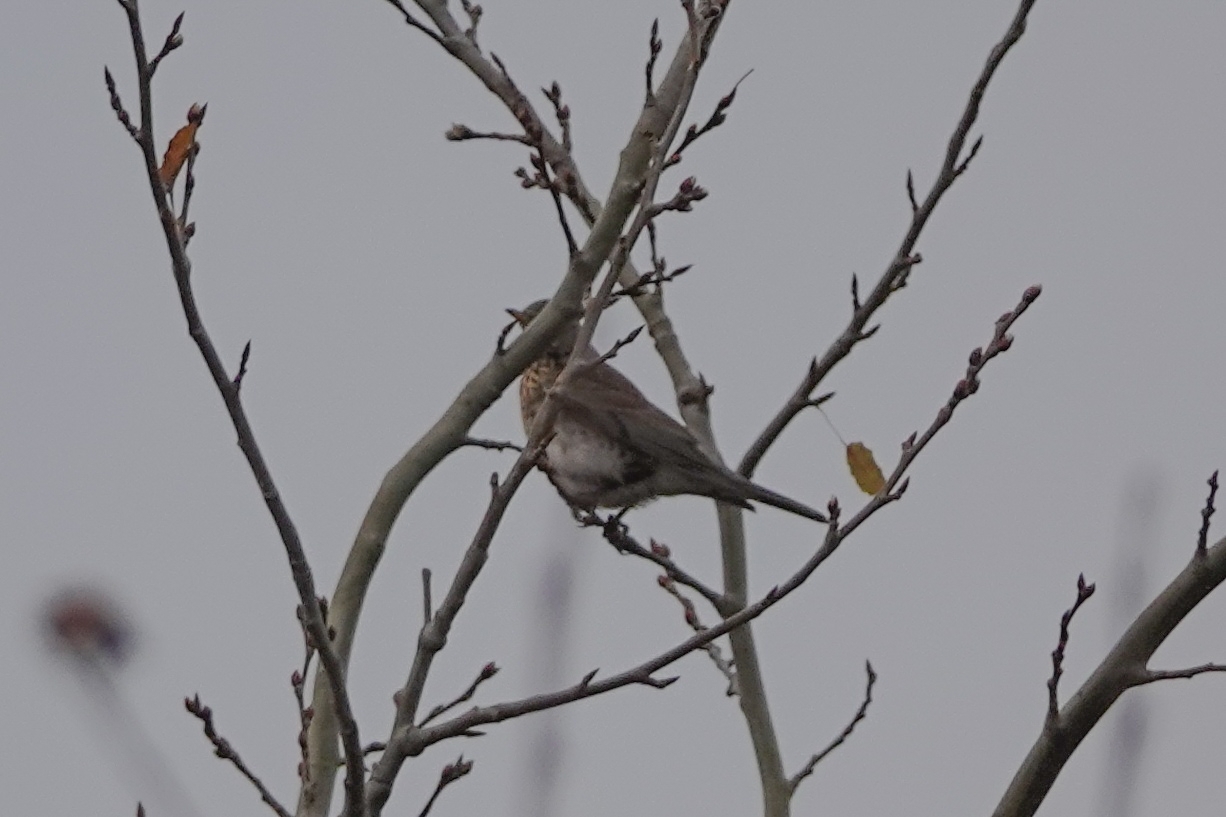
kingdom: Animalia
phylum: Chordata
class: Aves
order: Passeriformes
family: Turdidae
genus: Turdus
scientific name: Turdus pilaris
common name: Fieldfare
